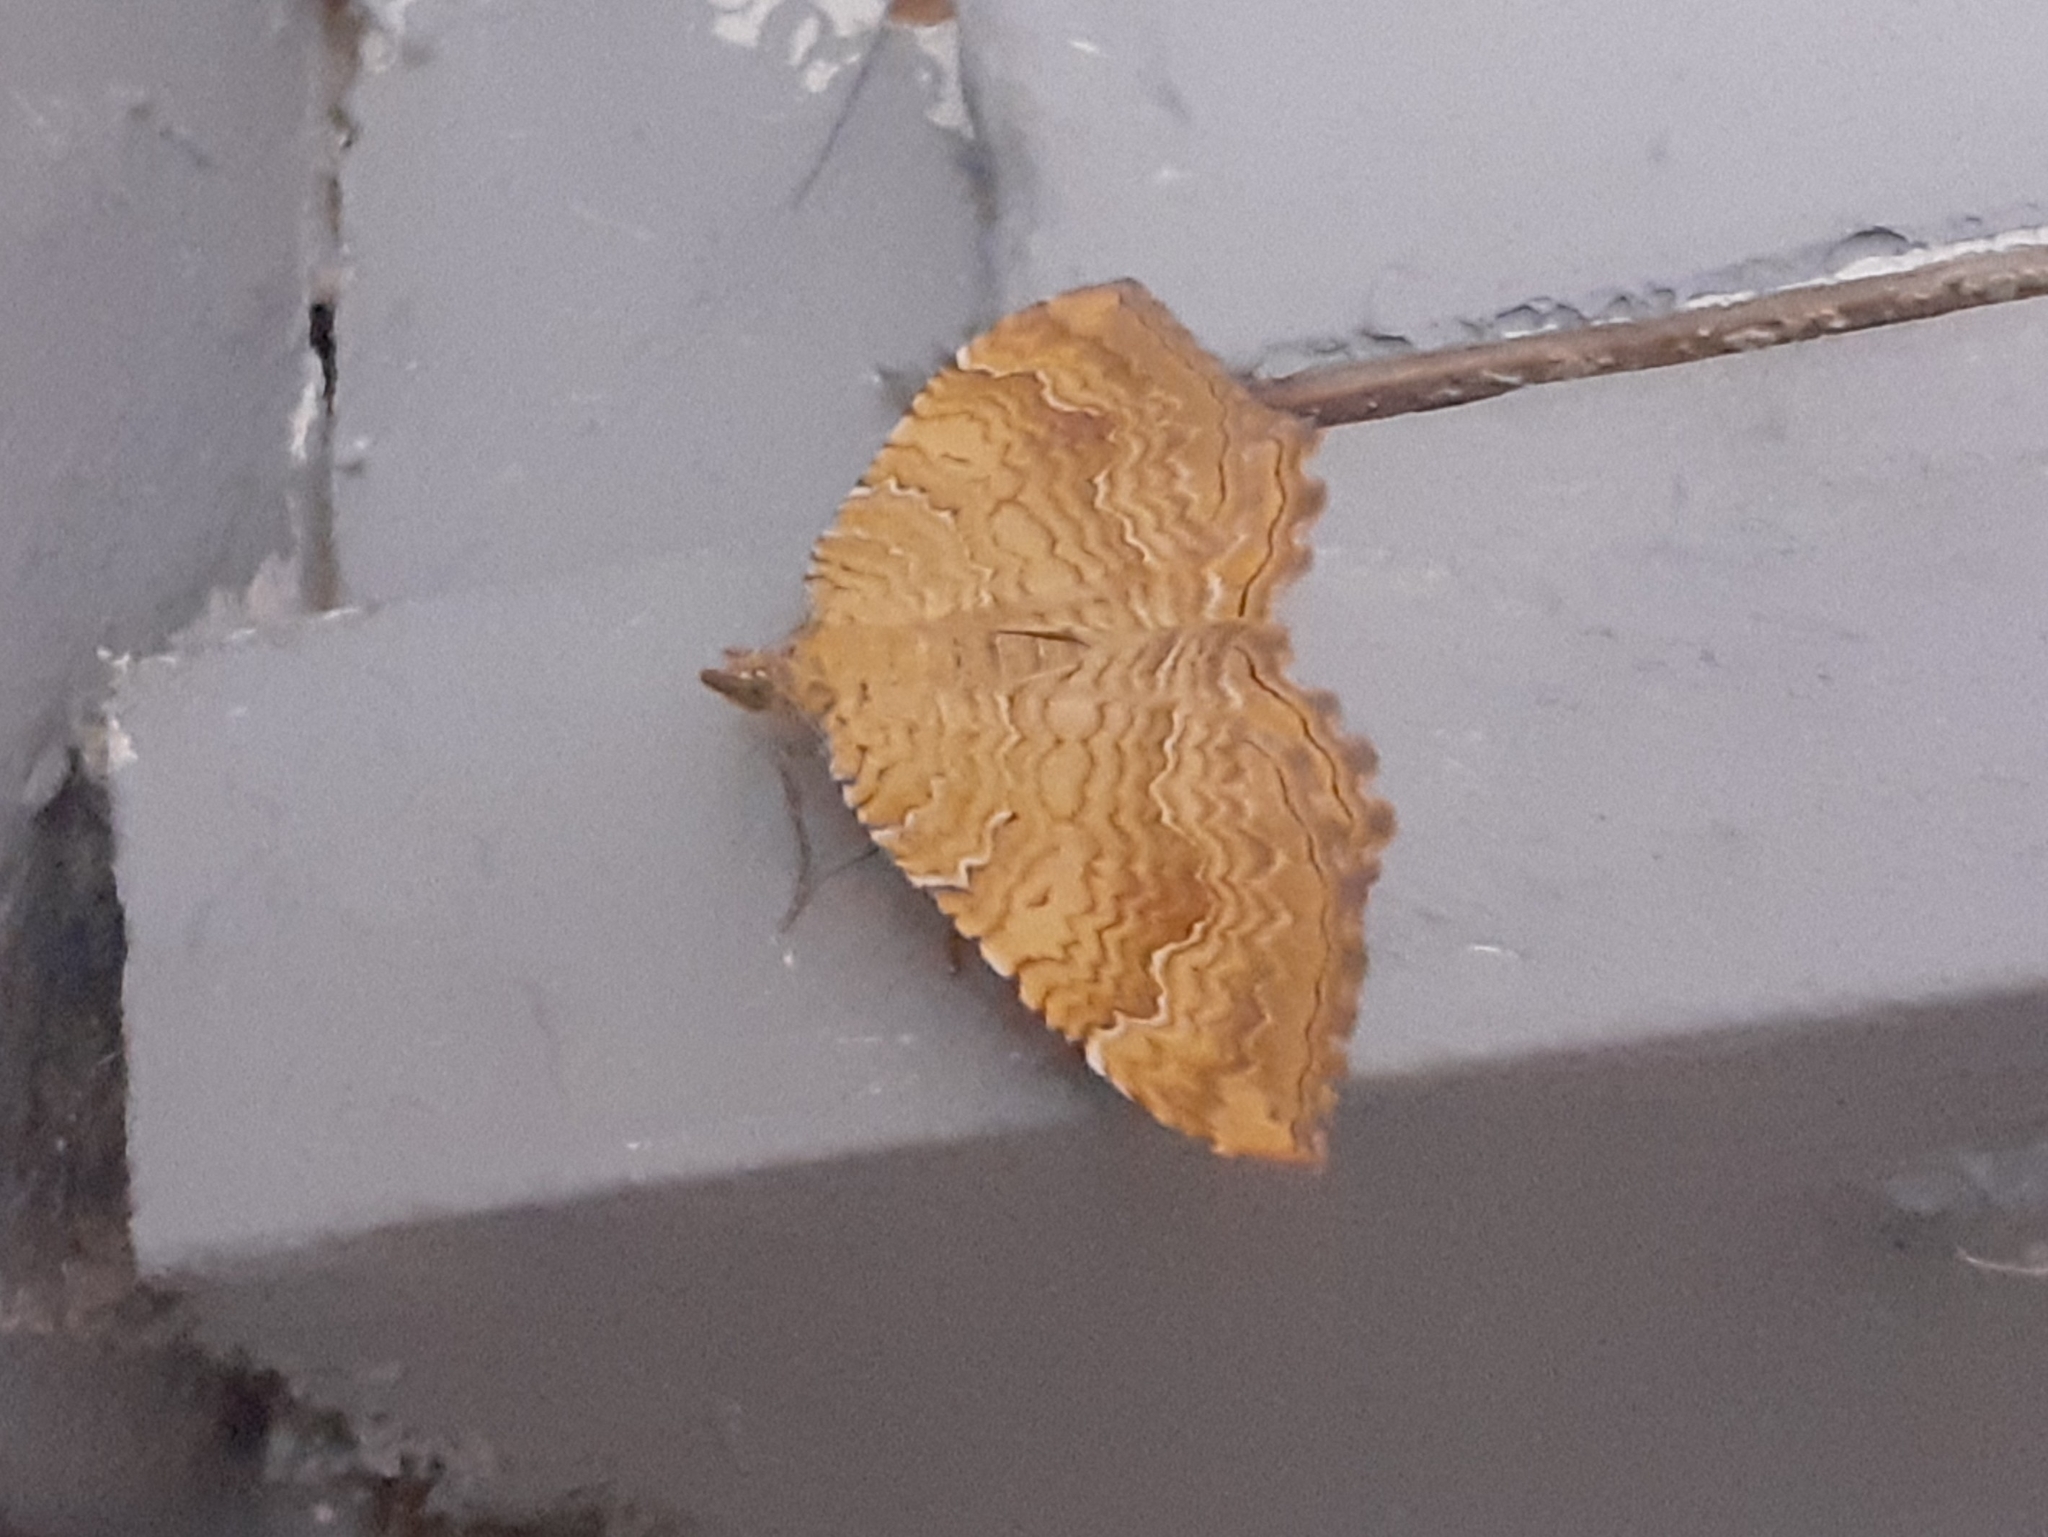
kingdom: Animalia
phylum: Arthropoda
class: Insecta
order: Lepidoptera
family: Geometridae
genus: Camptogramma
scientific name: Camptogramma bilineata
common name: Yellow shell
